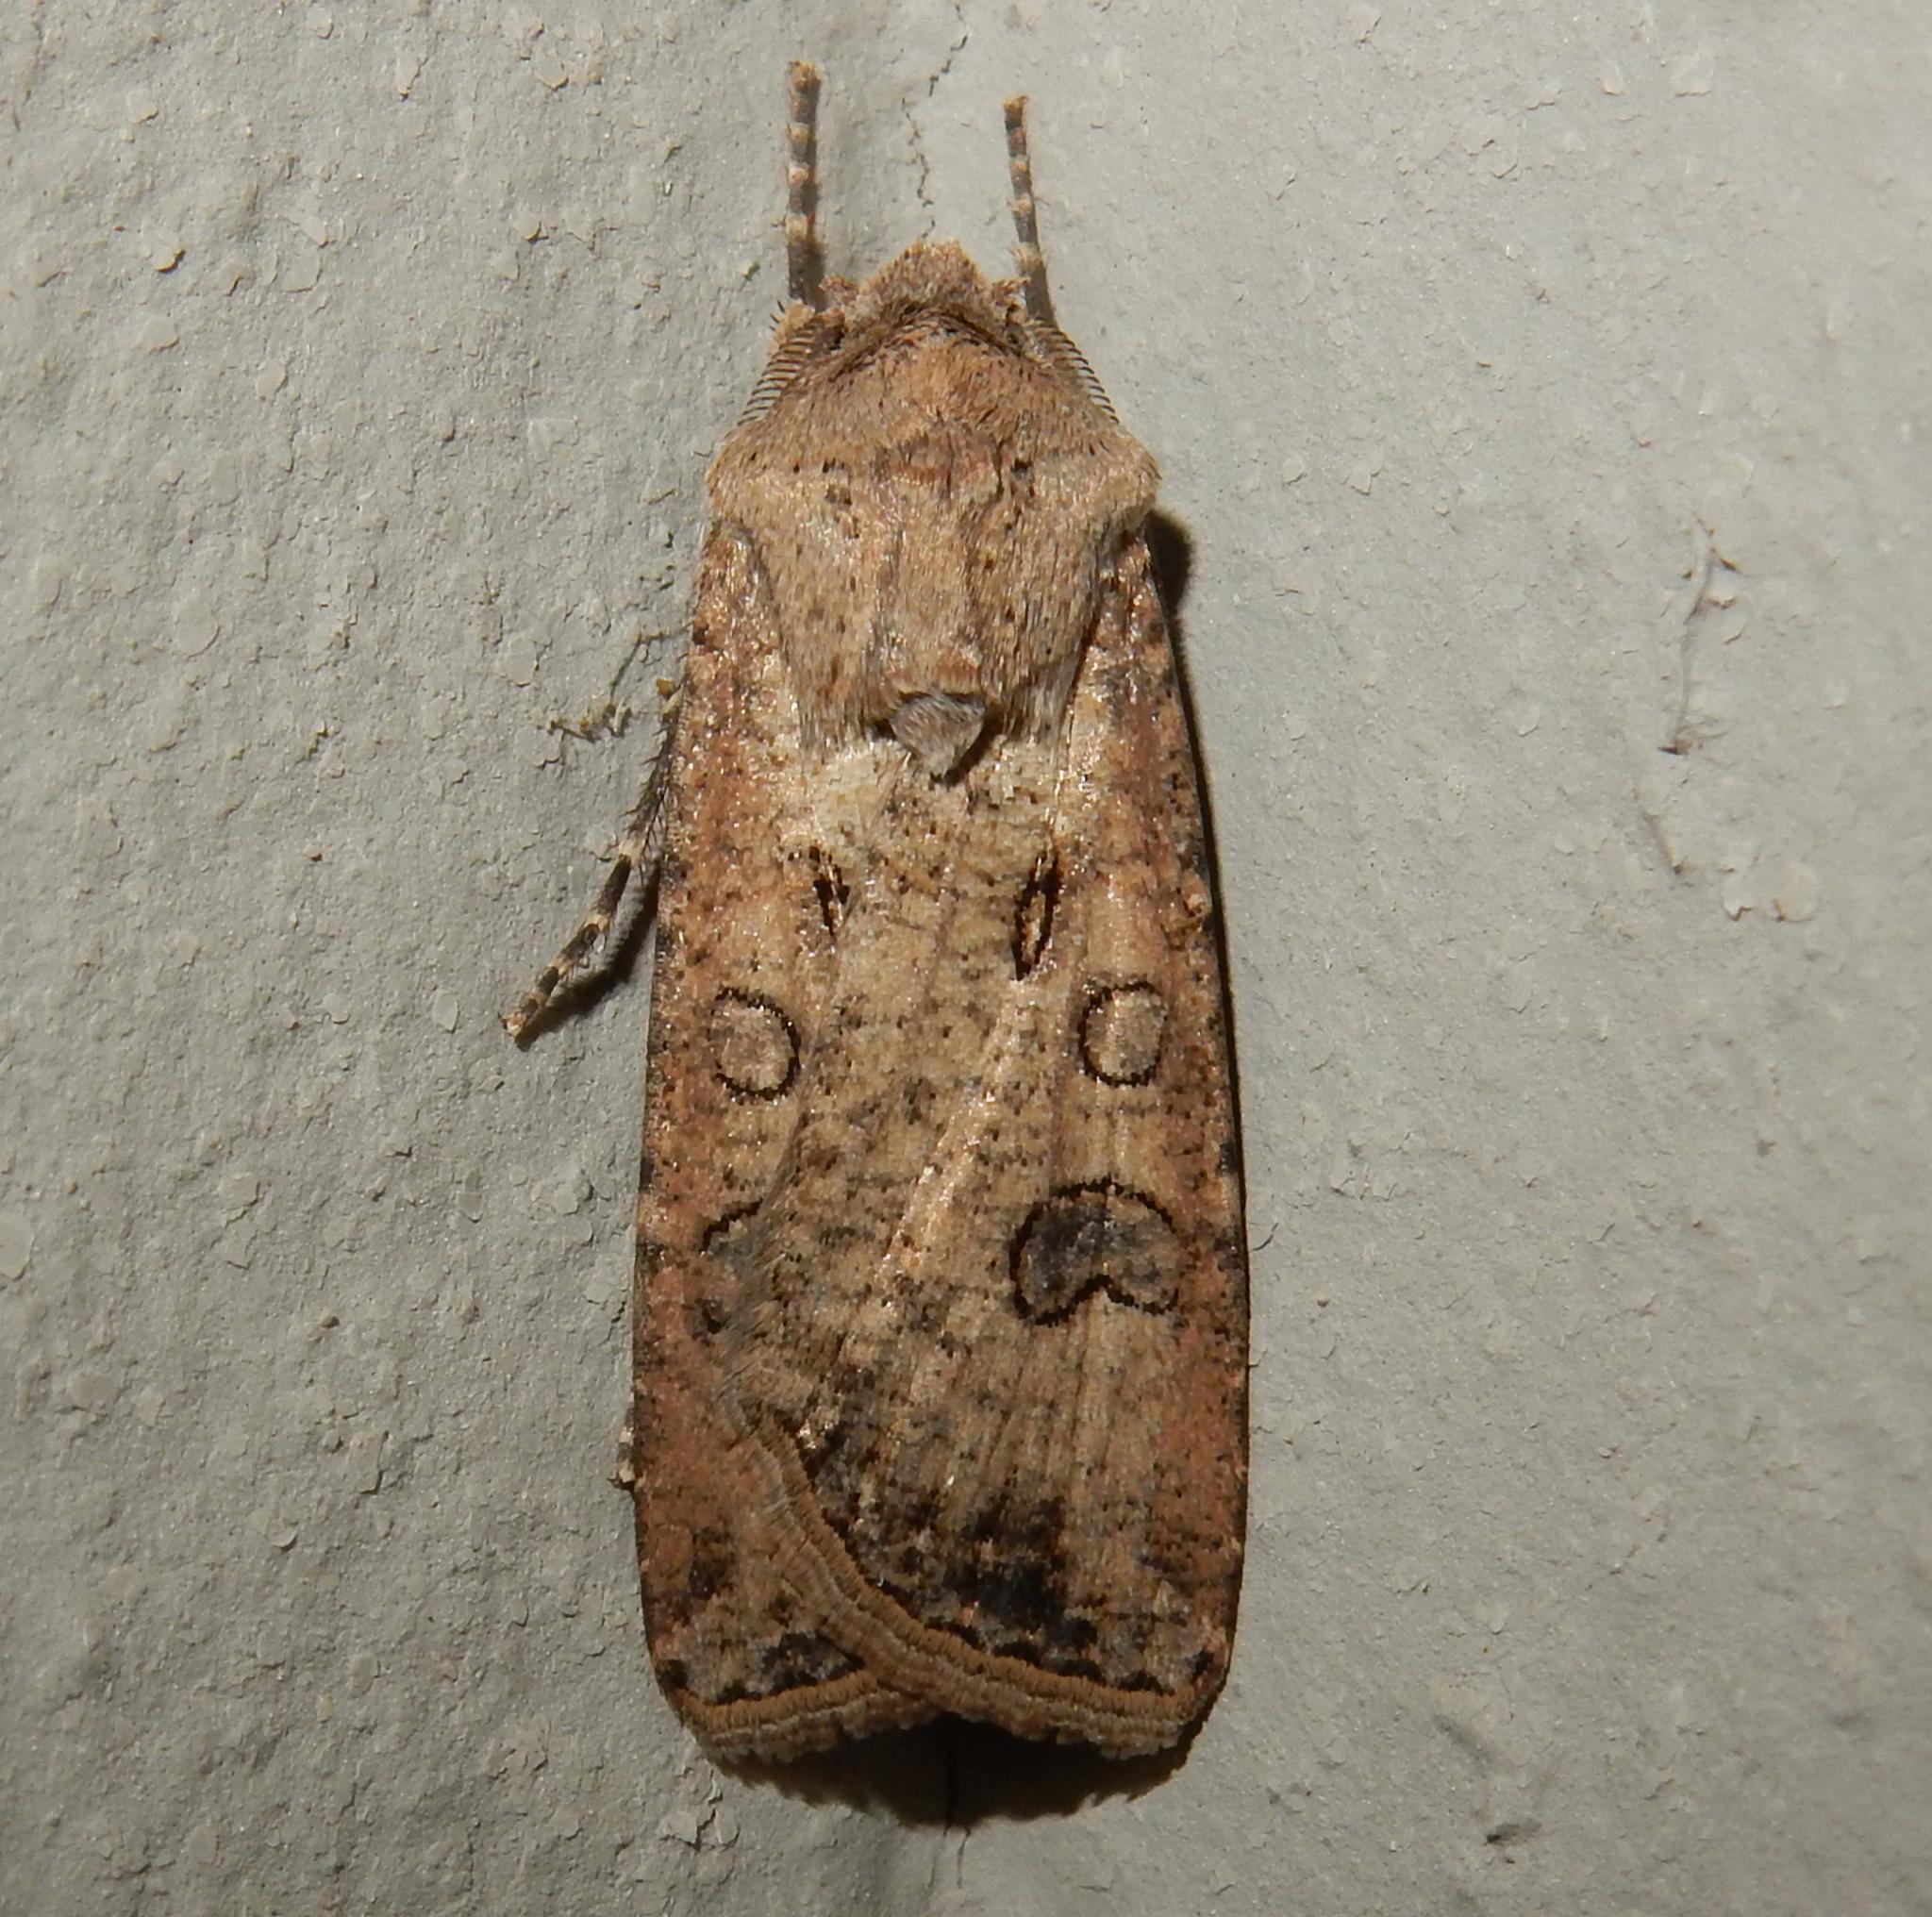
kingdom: Animalia
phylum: Arthropoda
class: Insecta
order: Lepidoptera
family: Noctuidae
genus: Agrotis
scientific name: Agrotis segetum
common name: Turnip moth
